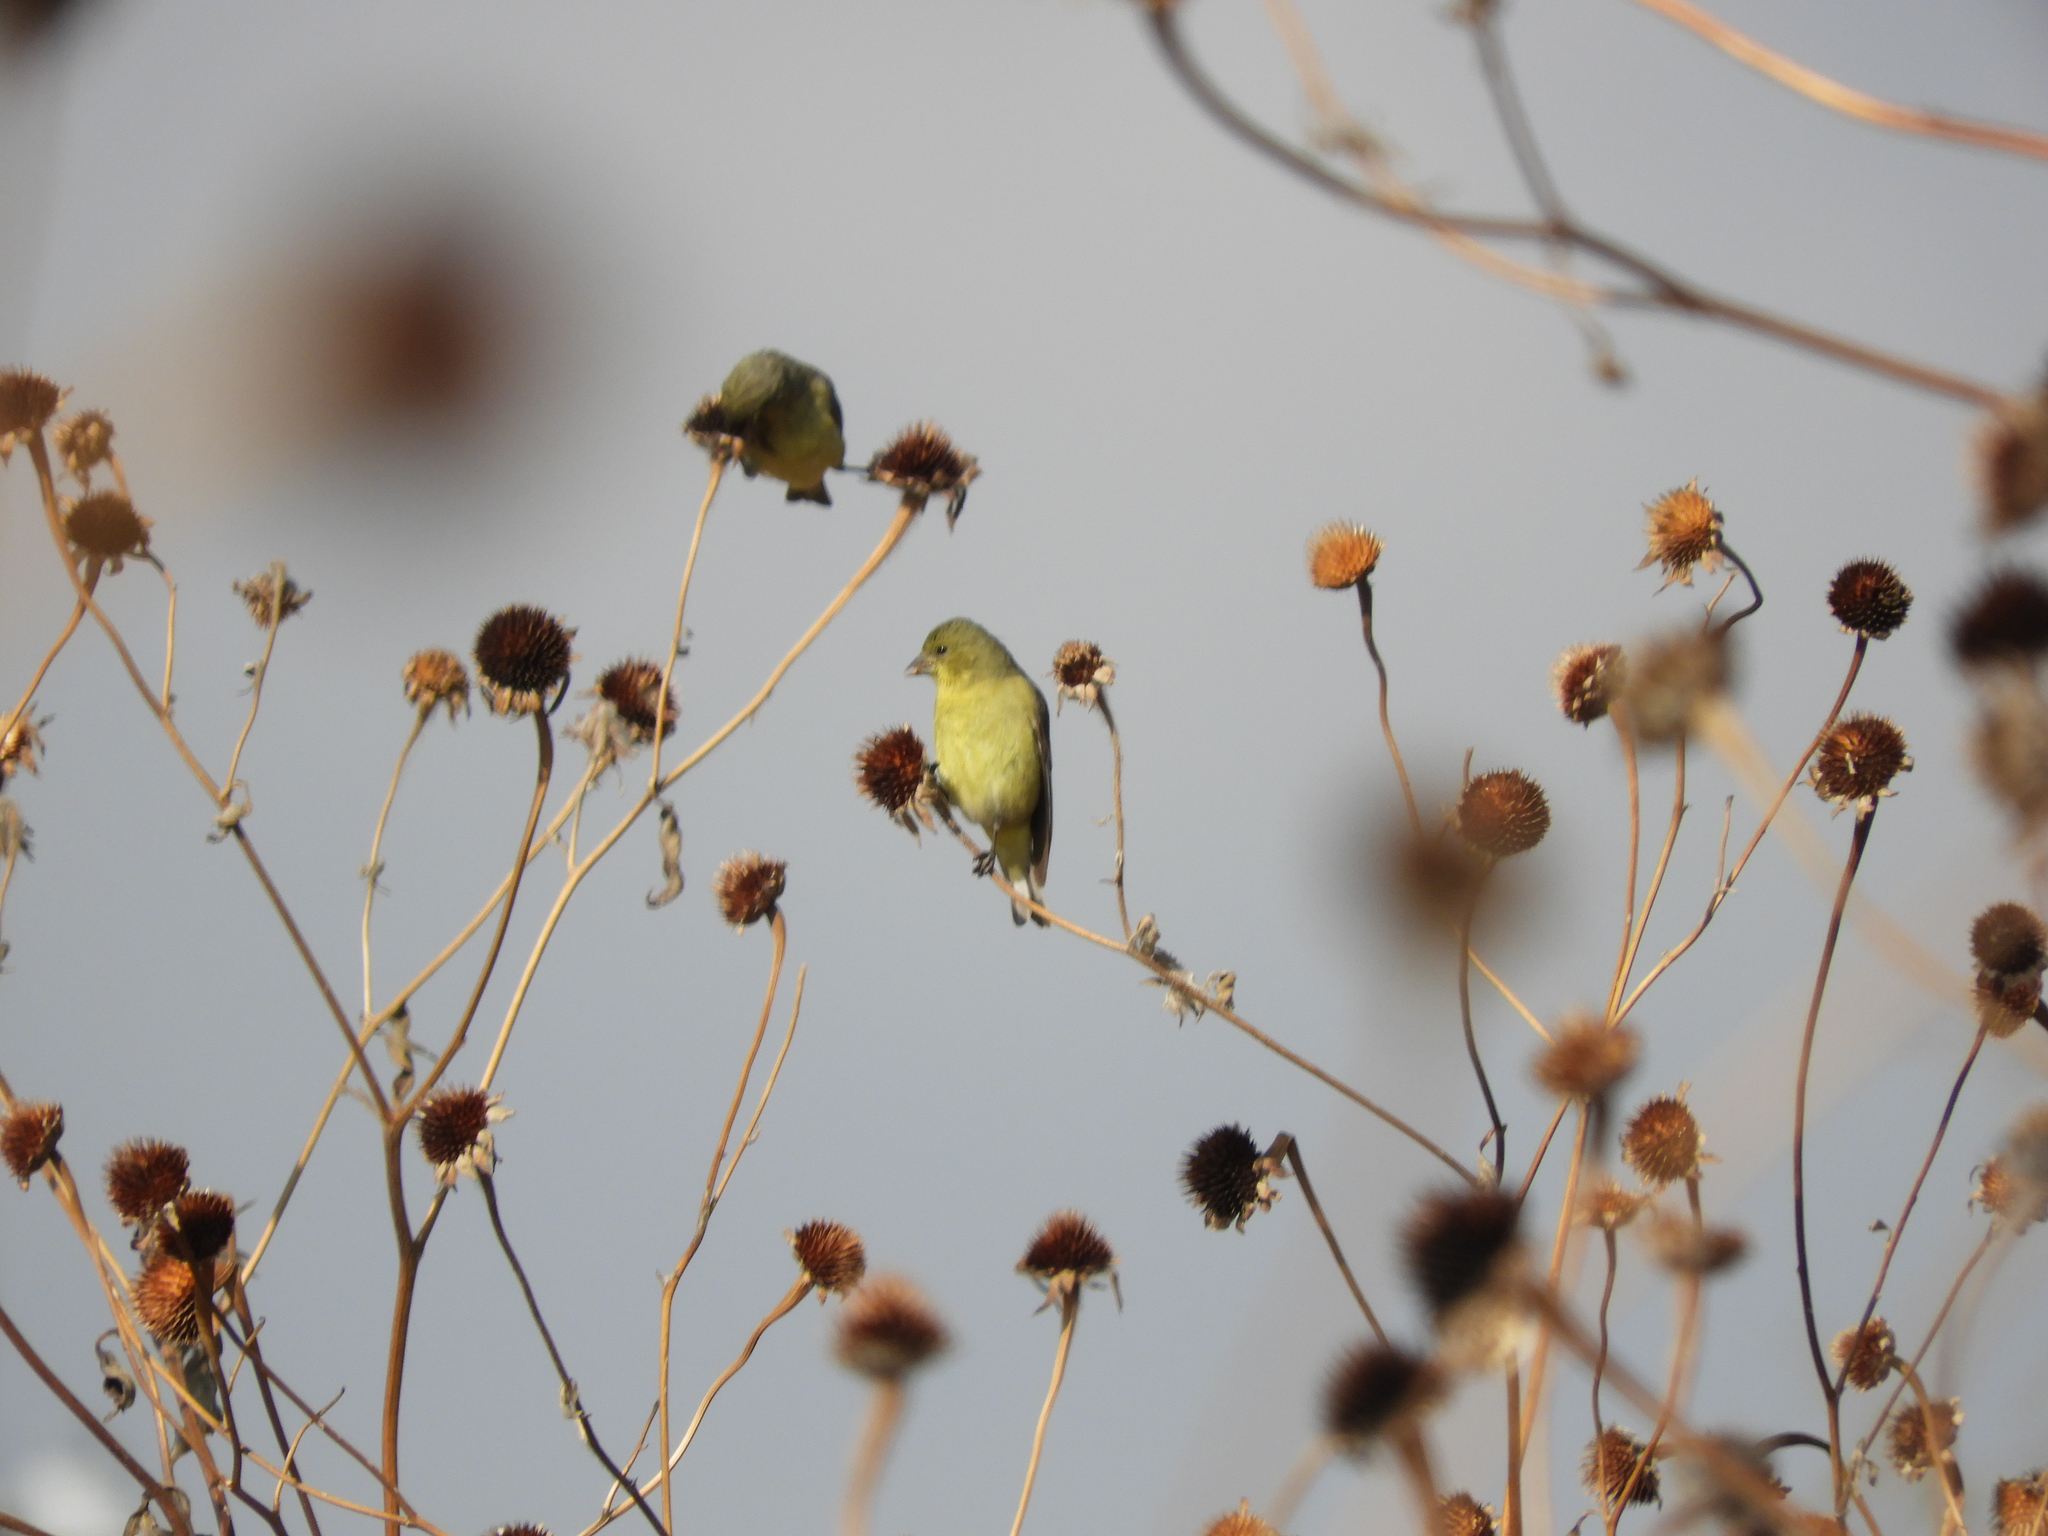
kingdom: Animalia
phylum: Chordata
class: Aves
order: Passeriformes
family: Fringillidae
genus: Spinus
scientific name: Spinus psaltria
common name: Lesser goldfinch
